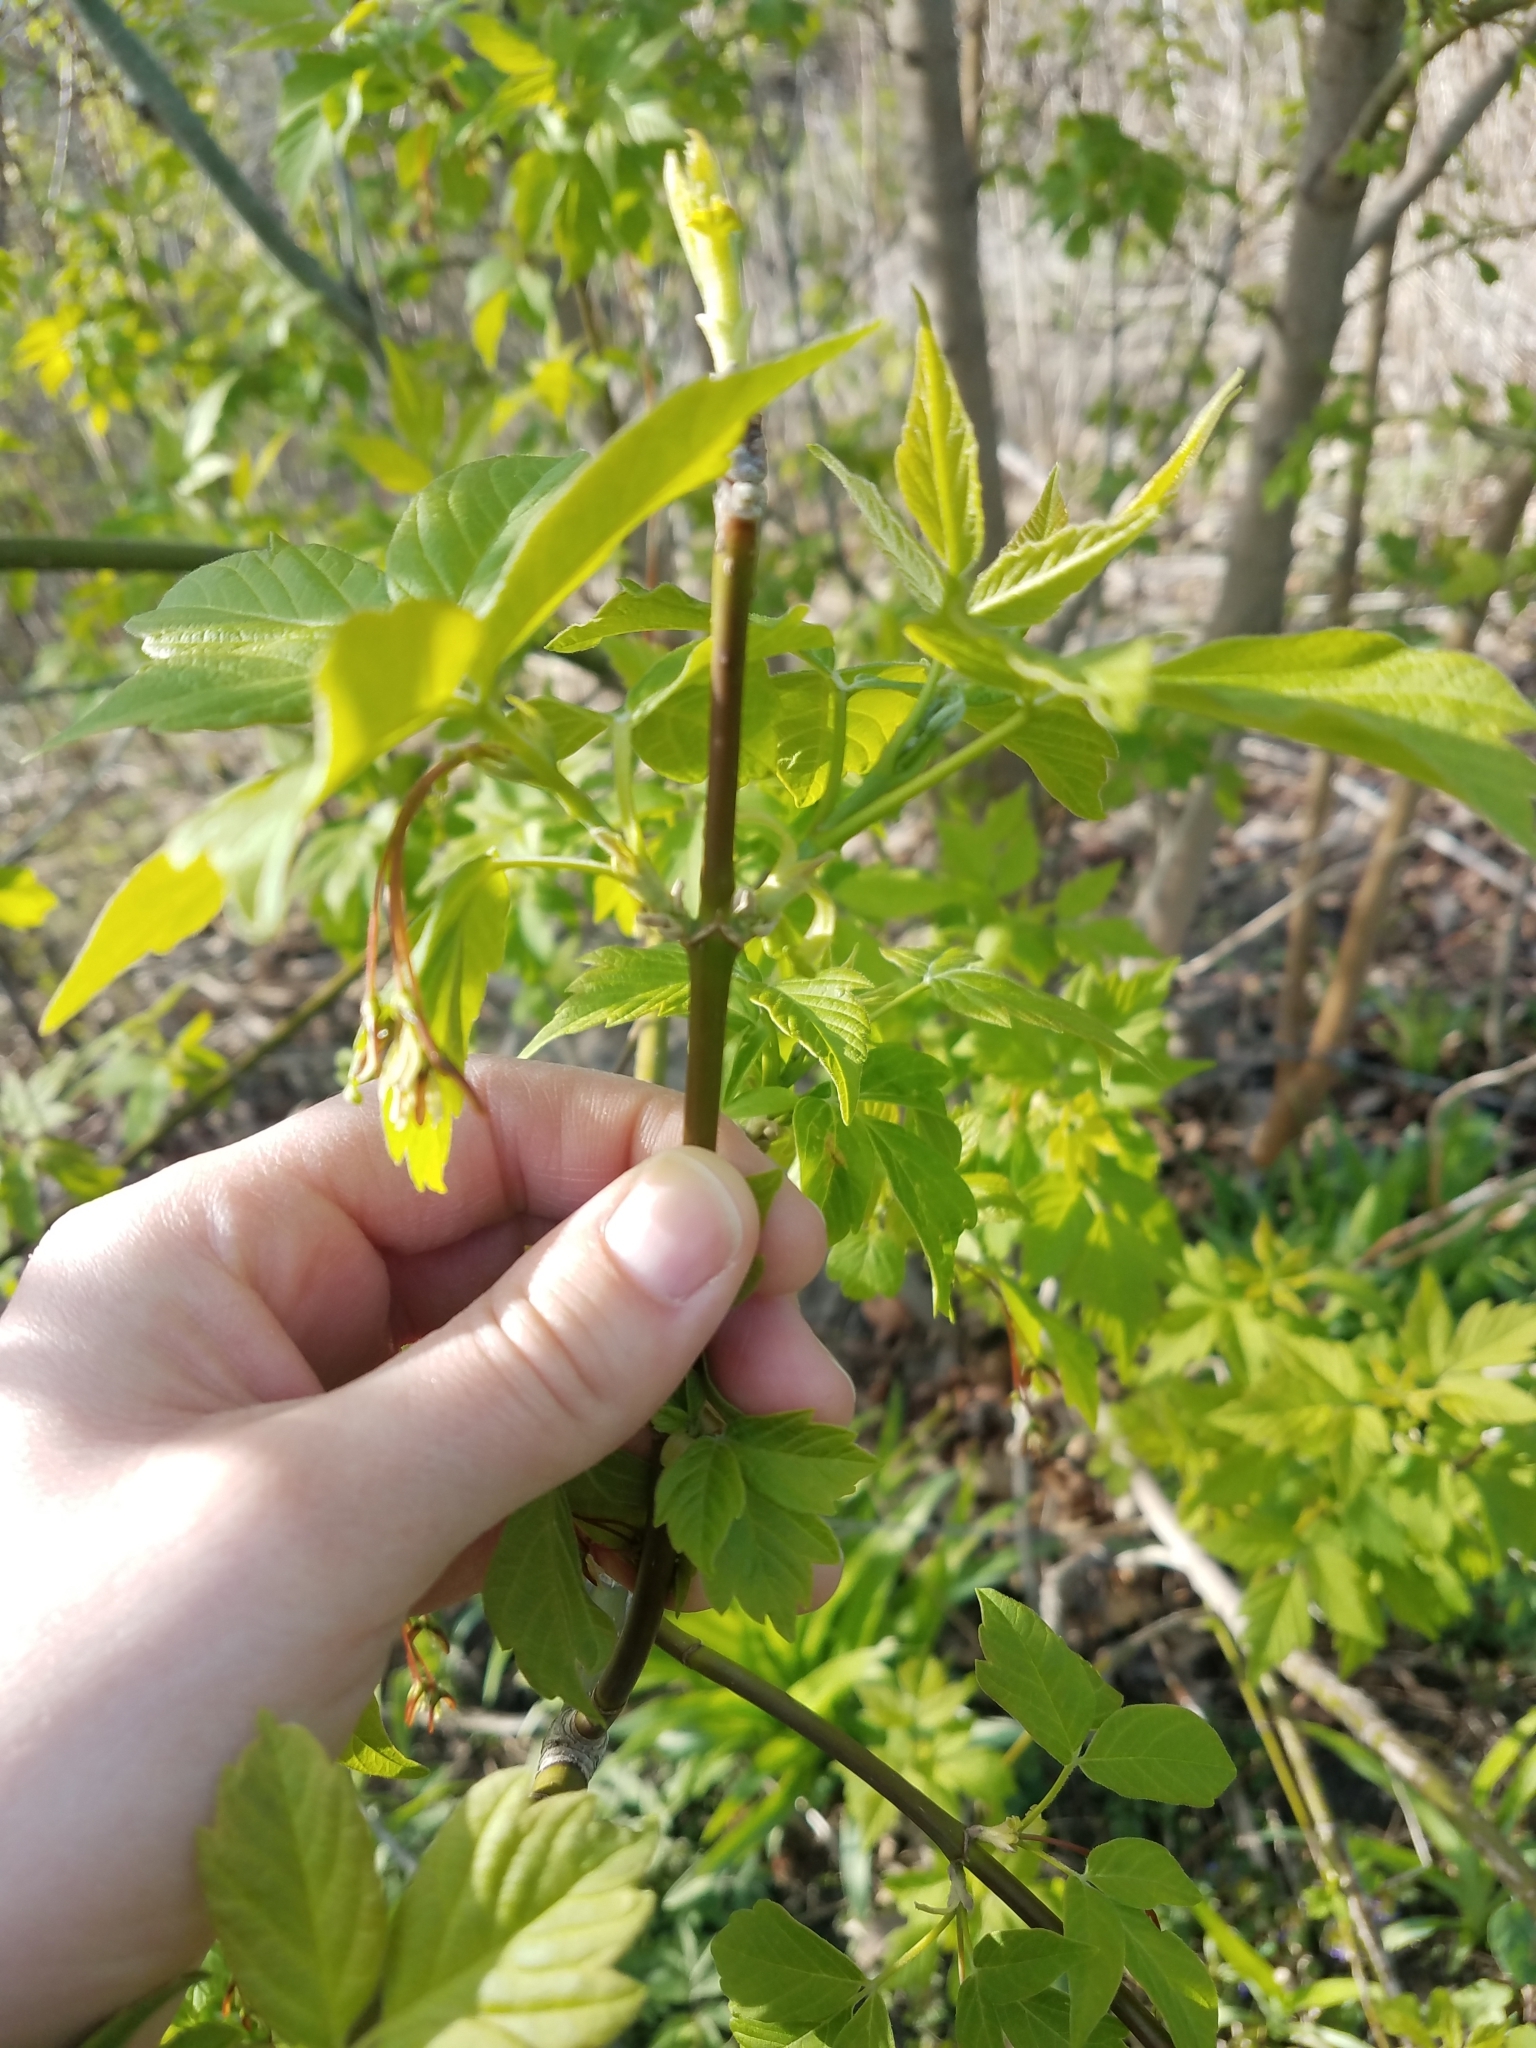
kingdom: Plantae
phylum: Tracheophyta
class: Magnoliopsida
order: Sapindales
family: Sapindaceae
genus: Acer
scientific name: Acer negundo
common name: Ashleaf maple
